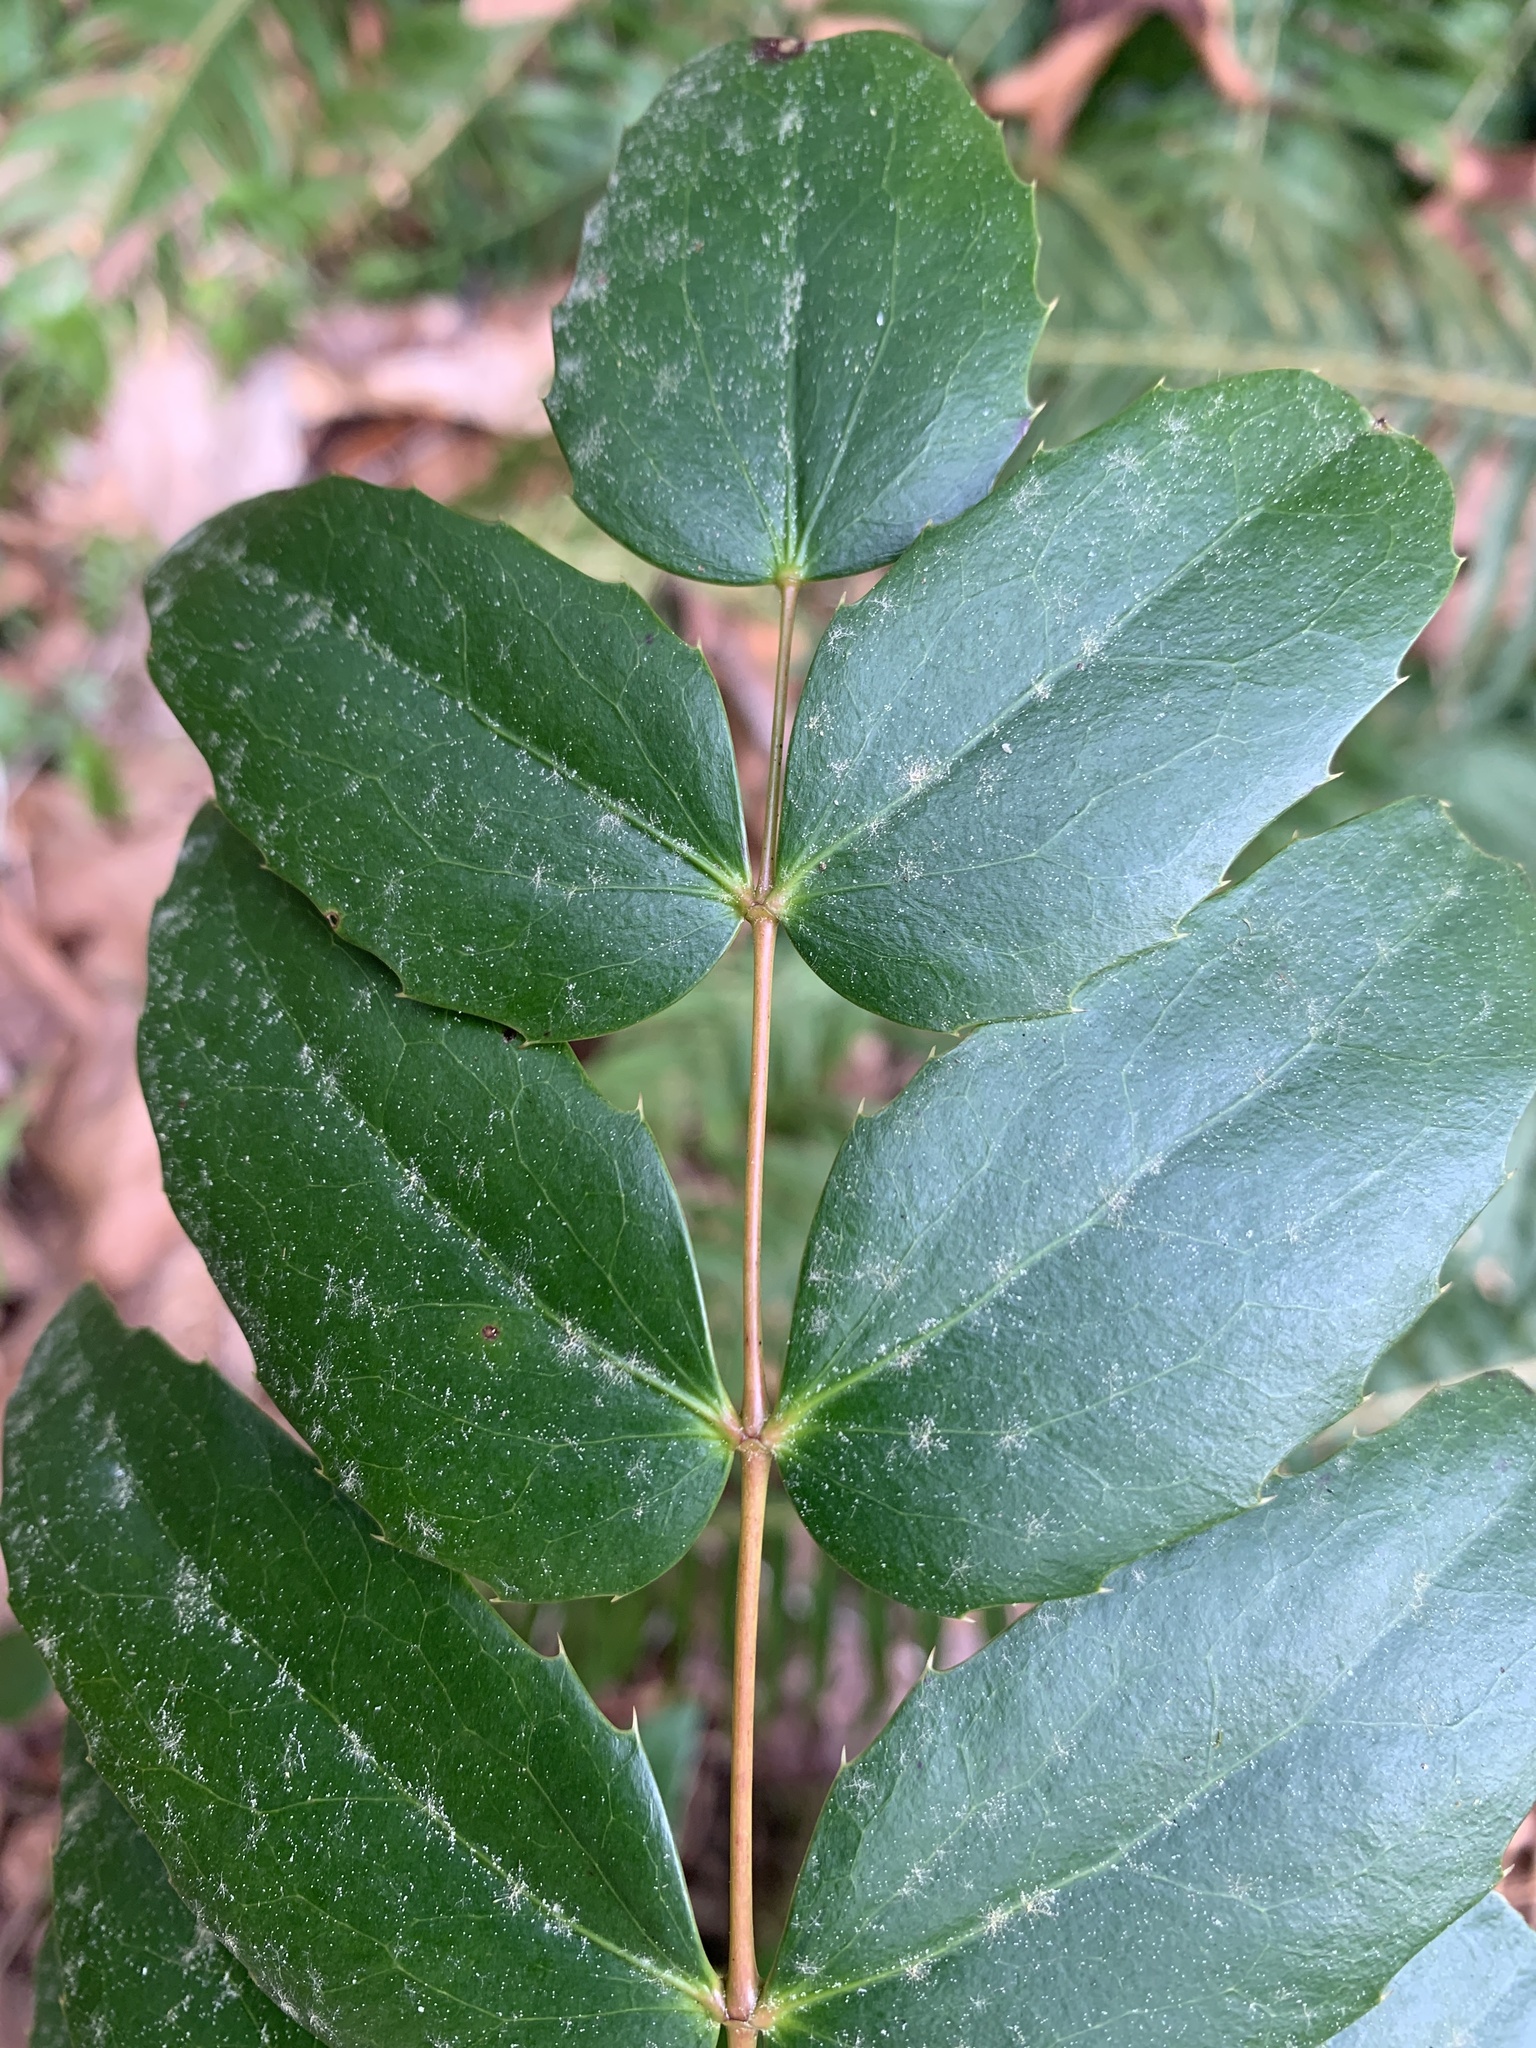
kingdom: Plantae
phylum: Tracheophyta
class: Magnoliopsida
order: Ranunculales
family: Berberidaceae
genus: Mahonia
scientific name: Mahonia nervosa
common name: Cascade oregon-grape
